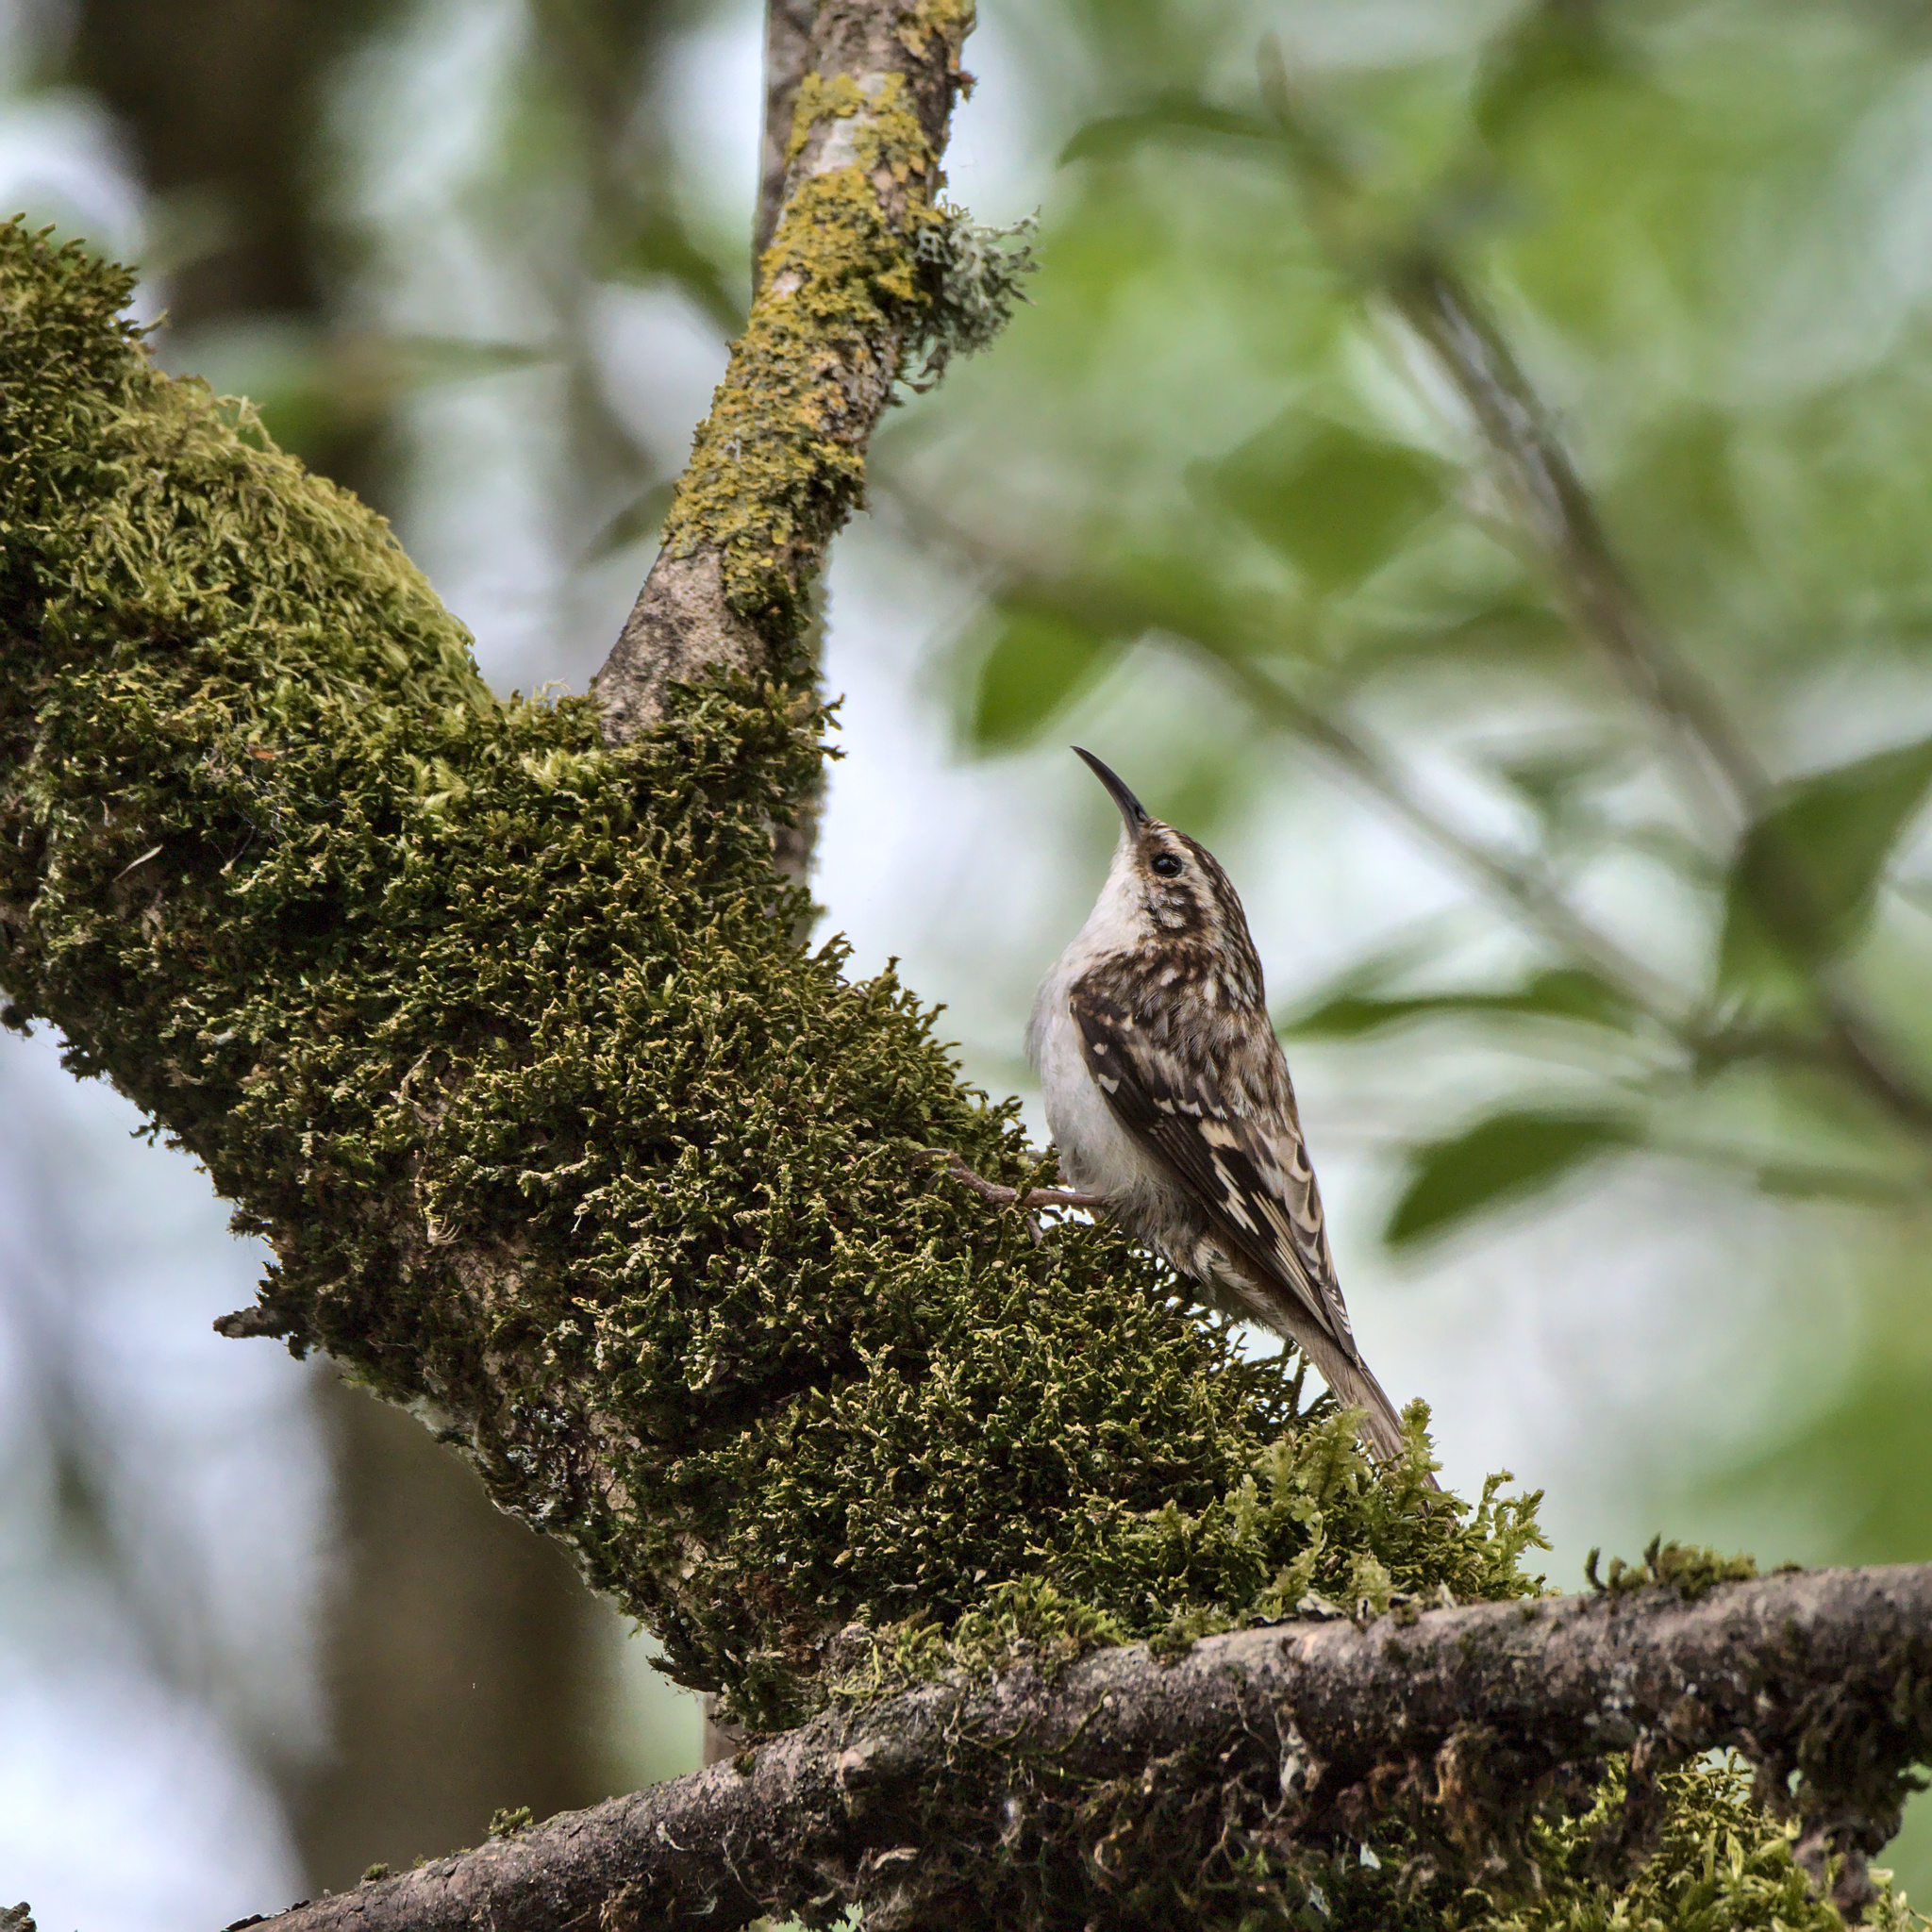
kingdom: Animalia
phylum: Chordata
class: Aves
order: Passeriformes
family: Certhiidae
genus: Certhia
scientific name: Certhia americana
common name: Brown creeper
